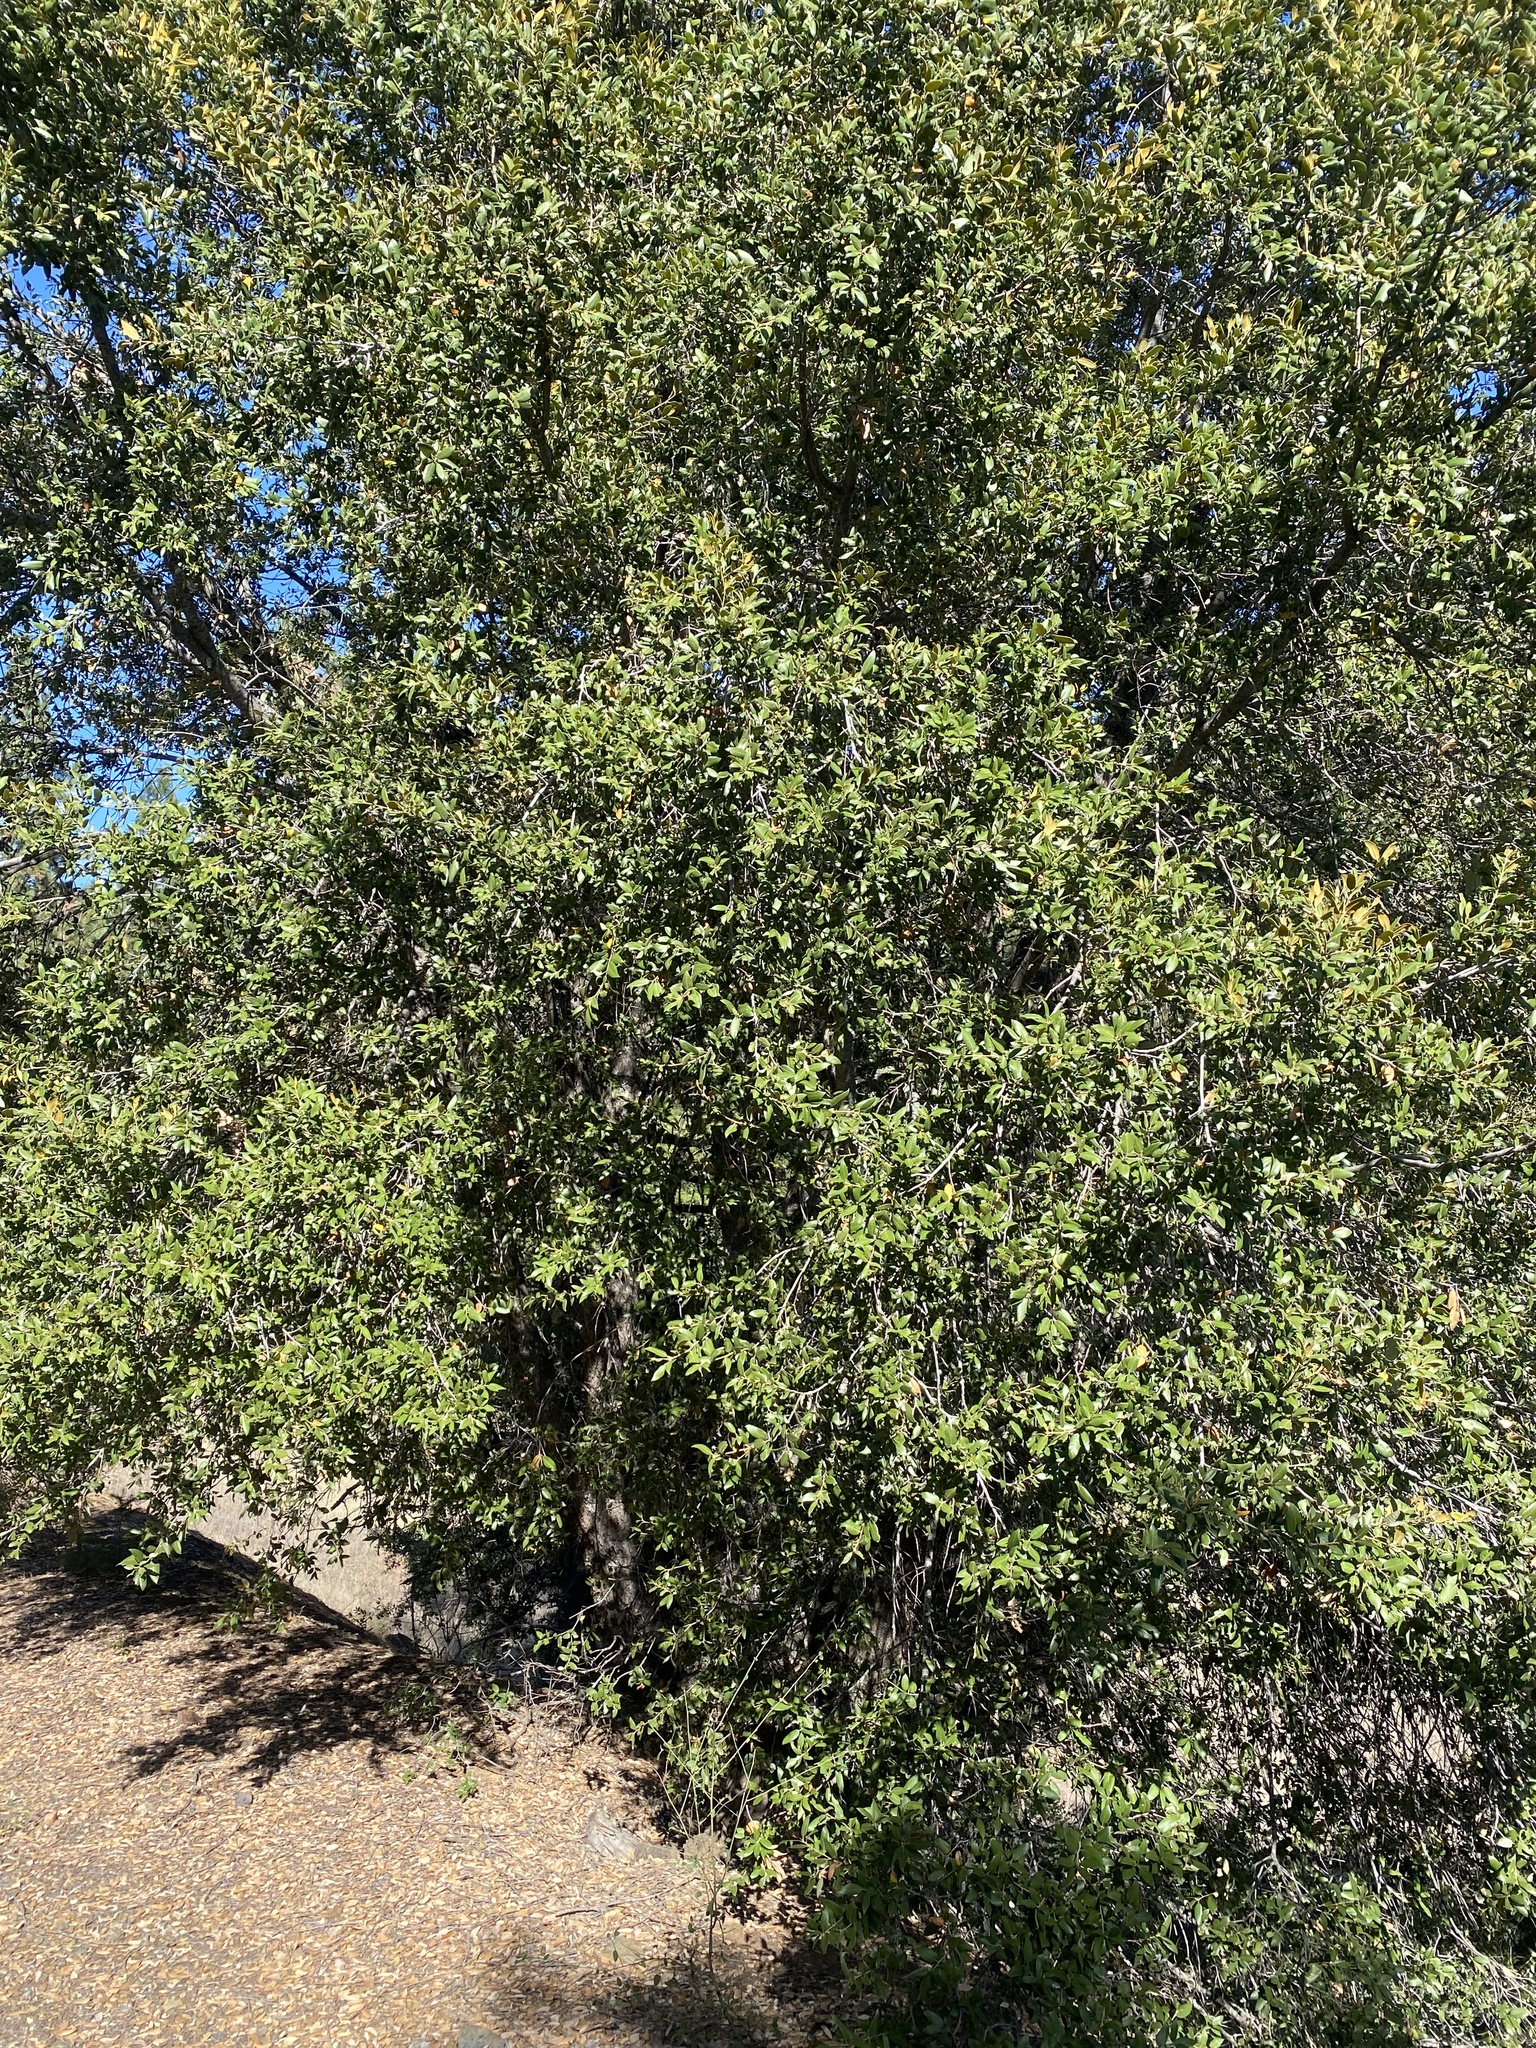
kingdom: Plantae
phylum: Tracheophyta
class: Magnoliopsida
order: Fagales
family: Fagaceae
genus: Quercus
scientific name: Quercus chrysolepis
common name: Canyon live oak
